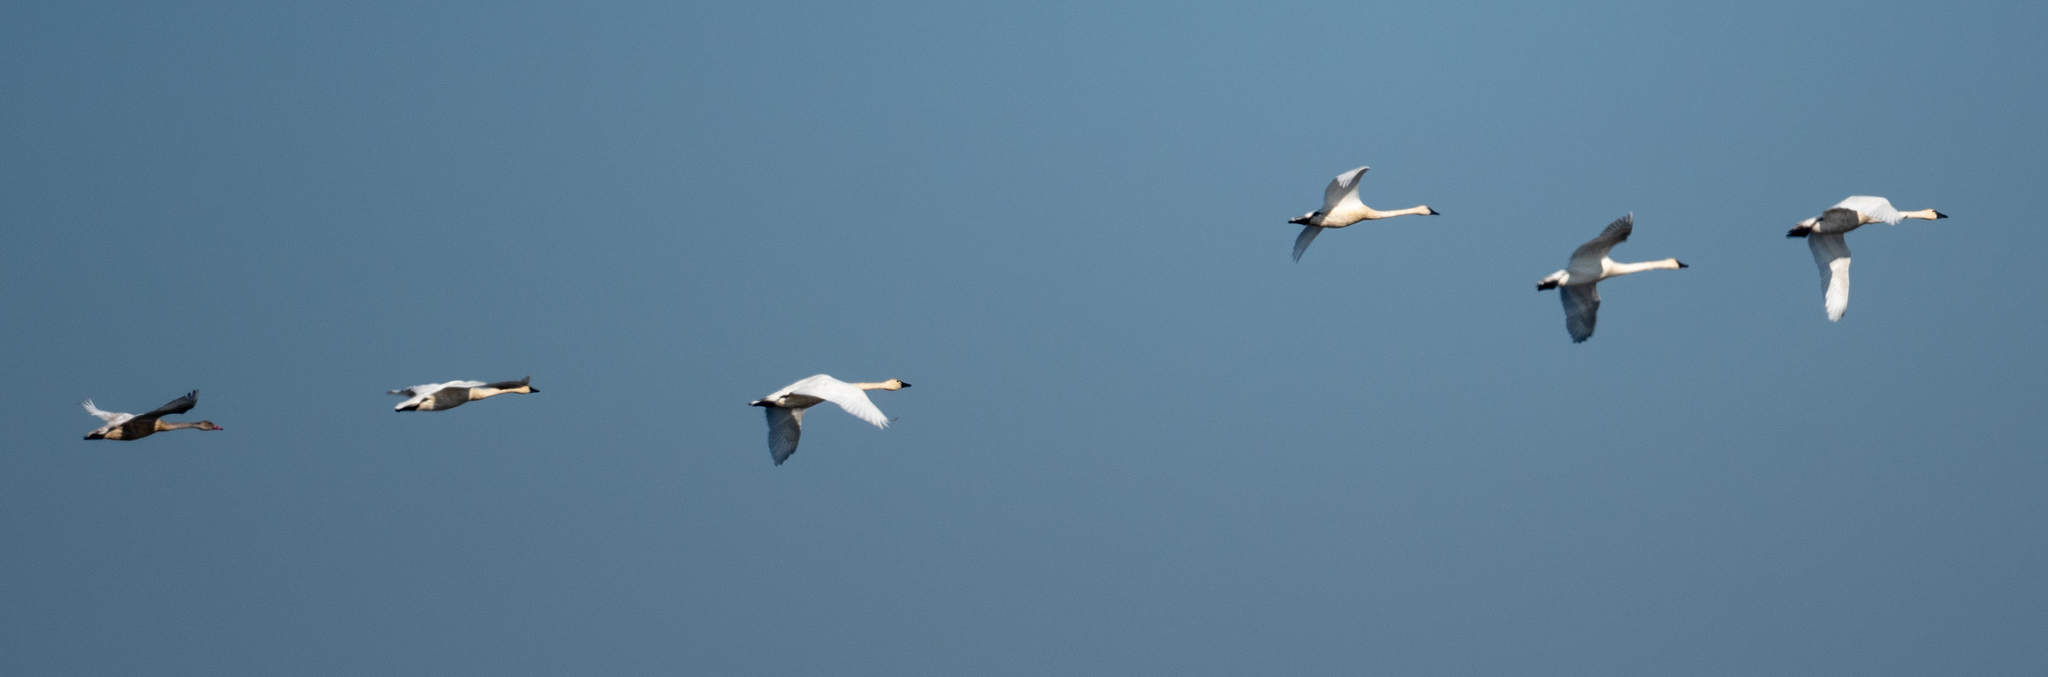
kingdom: Animalia
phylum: Chordata
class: Aves
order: Anseriformes
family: Anatidae
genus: Cygnus
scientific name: Cygnus columbianus
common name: Tundra swan
